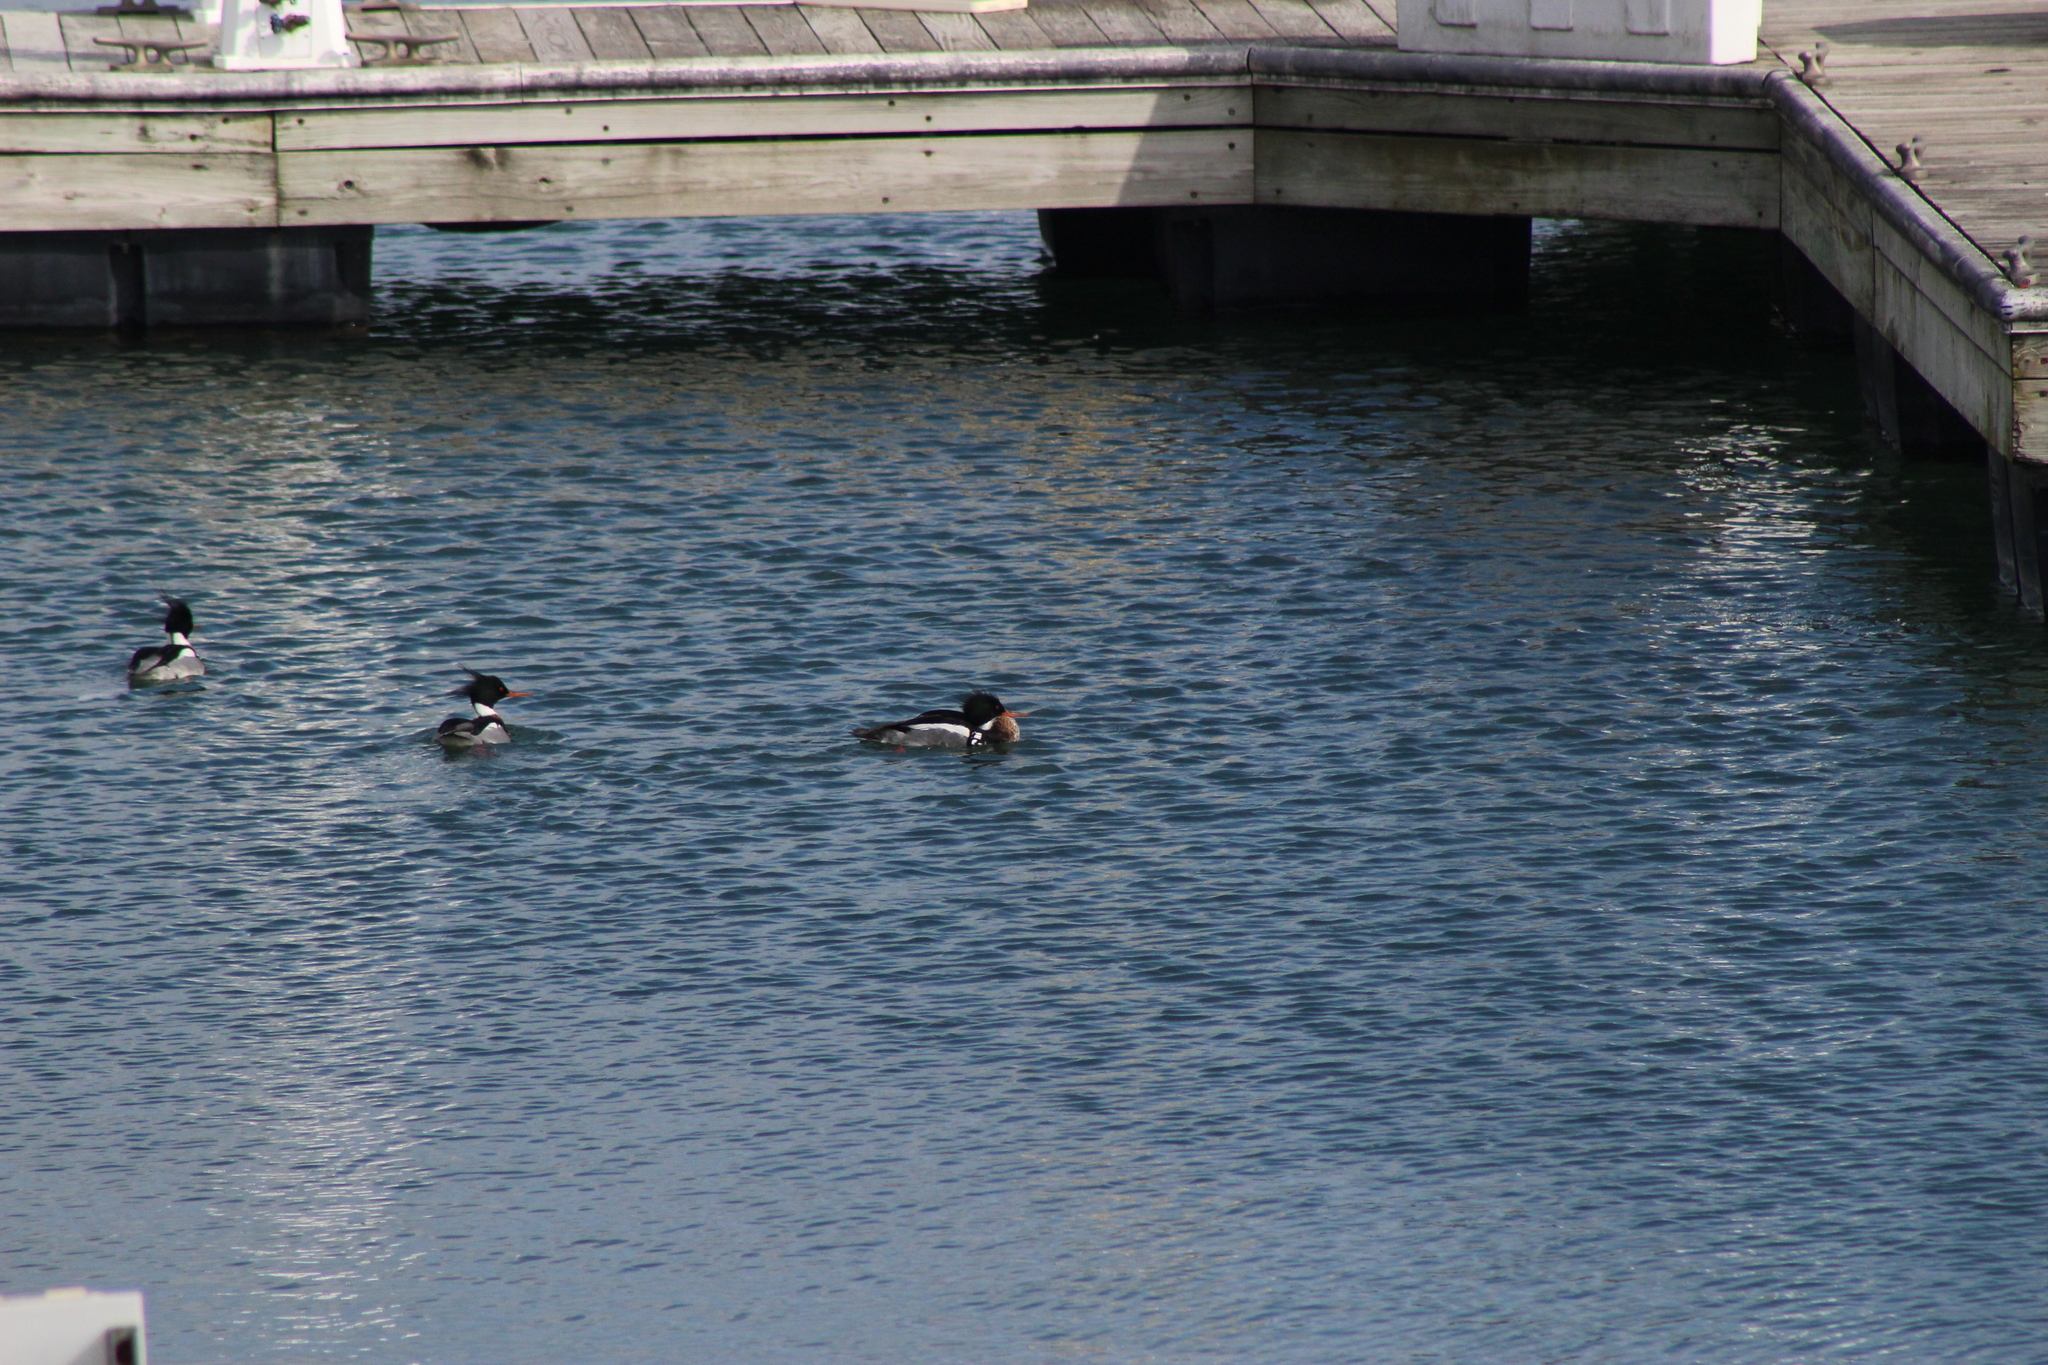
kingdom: Animalia
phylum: Chordata
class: Aves
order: Anseriformes
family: Anatidae
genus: Mergus
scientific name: Mergus serrator
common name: Red-breasted merganser
